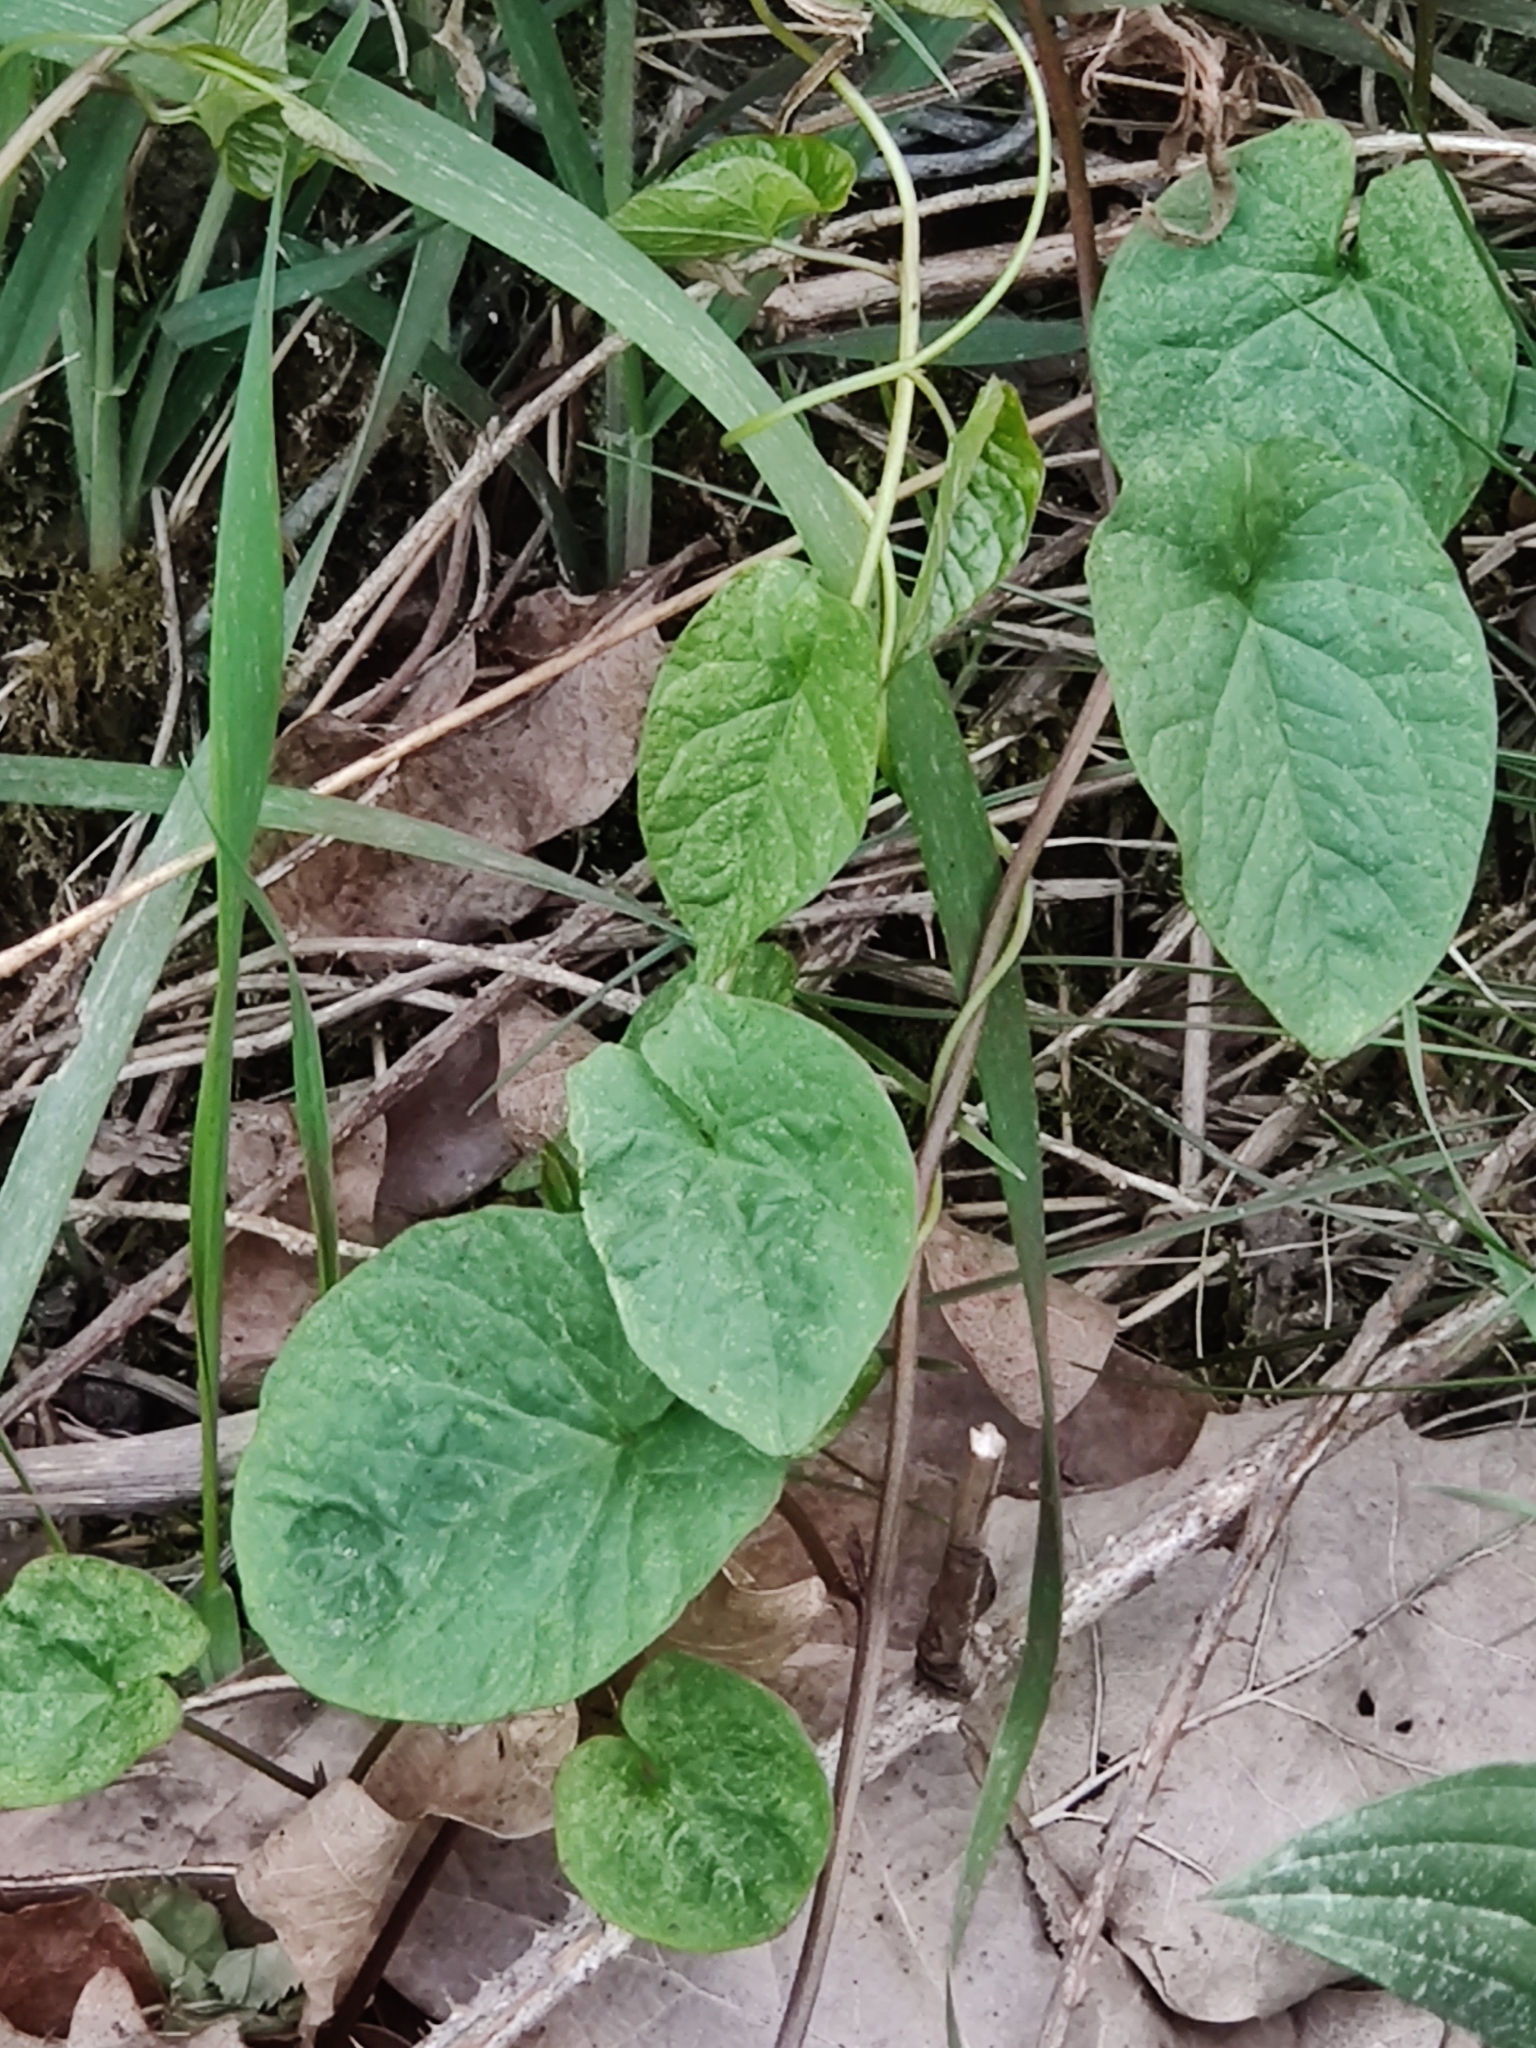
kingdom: Plantae
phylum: Tracheophyta
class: Magnoliopsida
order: Solanales
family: Convolvulaceae
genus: Calystegia
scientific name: Calystegia
